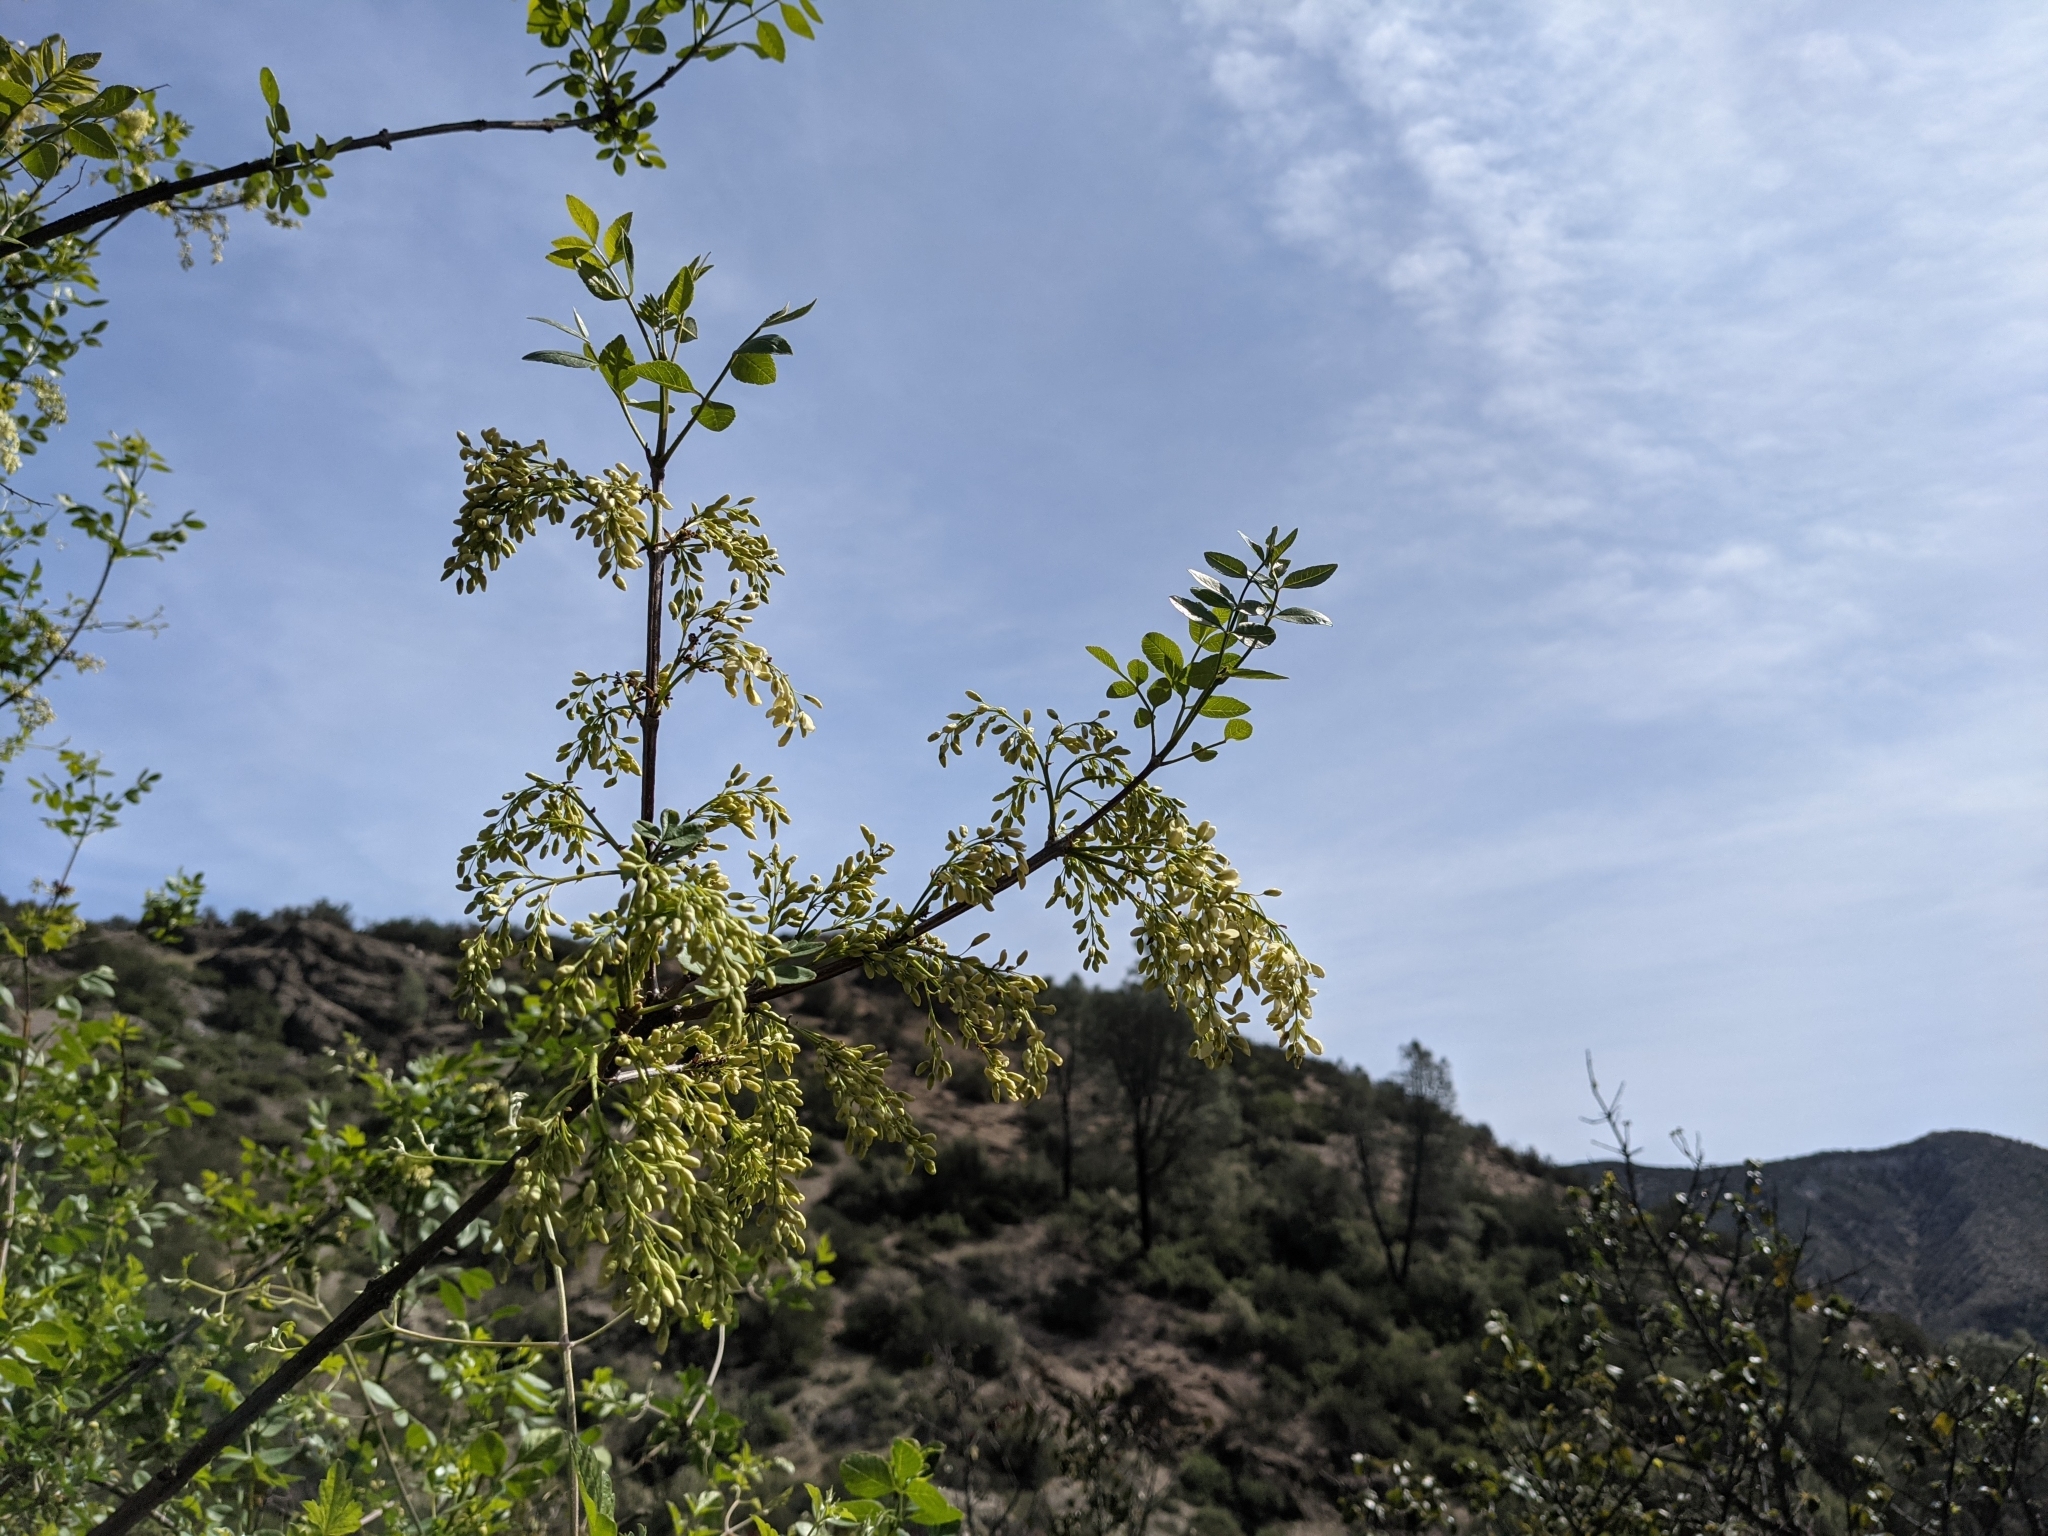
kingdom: Plantae
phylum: Tracheophyta
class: Magnoliopsida
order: Lamiales
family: Oleaceae
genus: Fraxinus
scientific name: Fraxinus dipetala
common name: California ash
